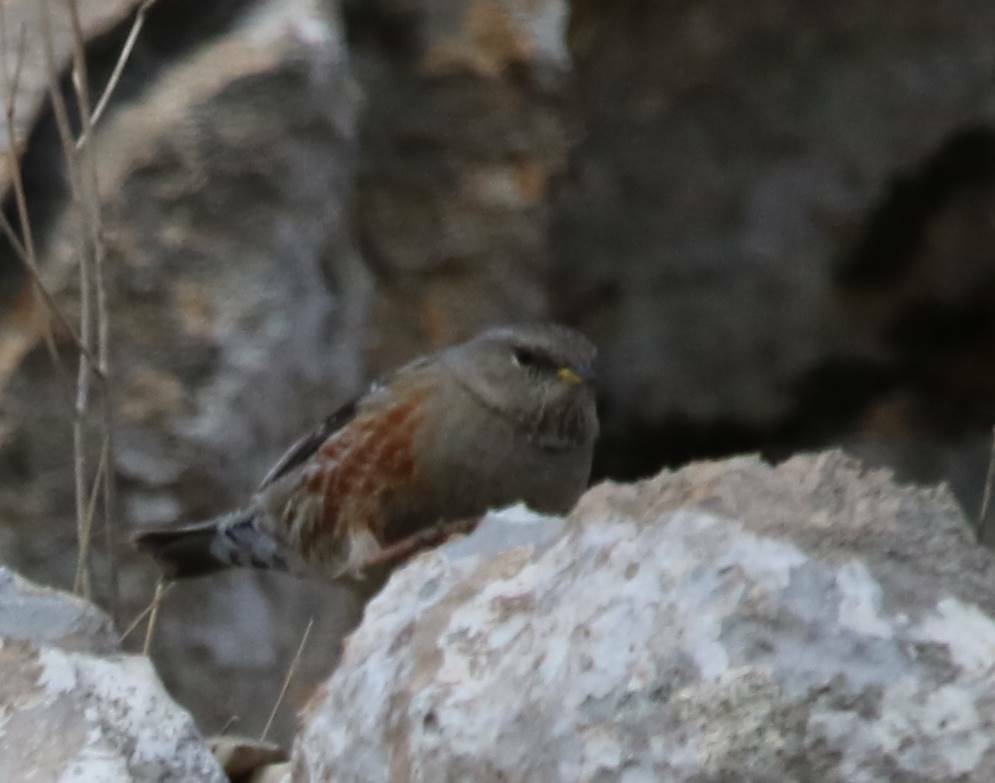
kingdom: Animalia
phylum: Chordata
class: Aves
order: Passeriformes
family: Prunellidae
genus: Prunella
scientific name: Prunella collaris
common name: Alpine accentor
